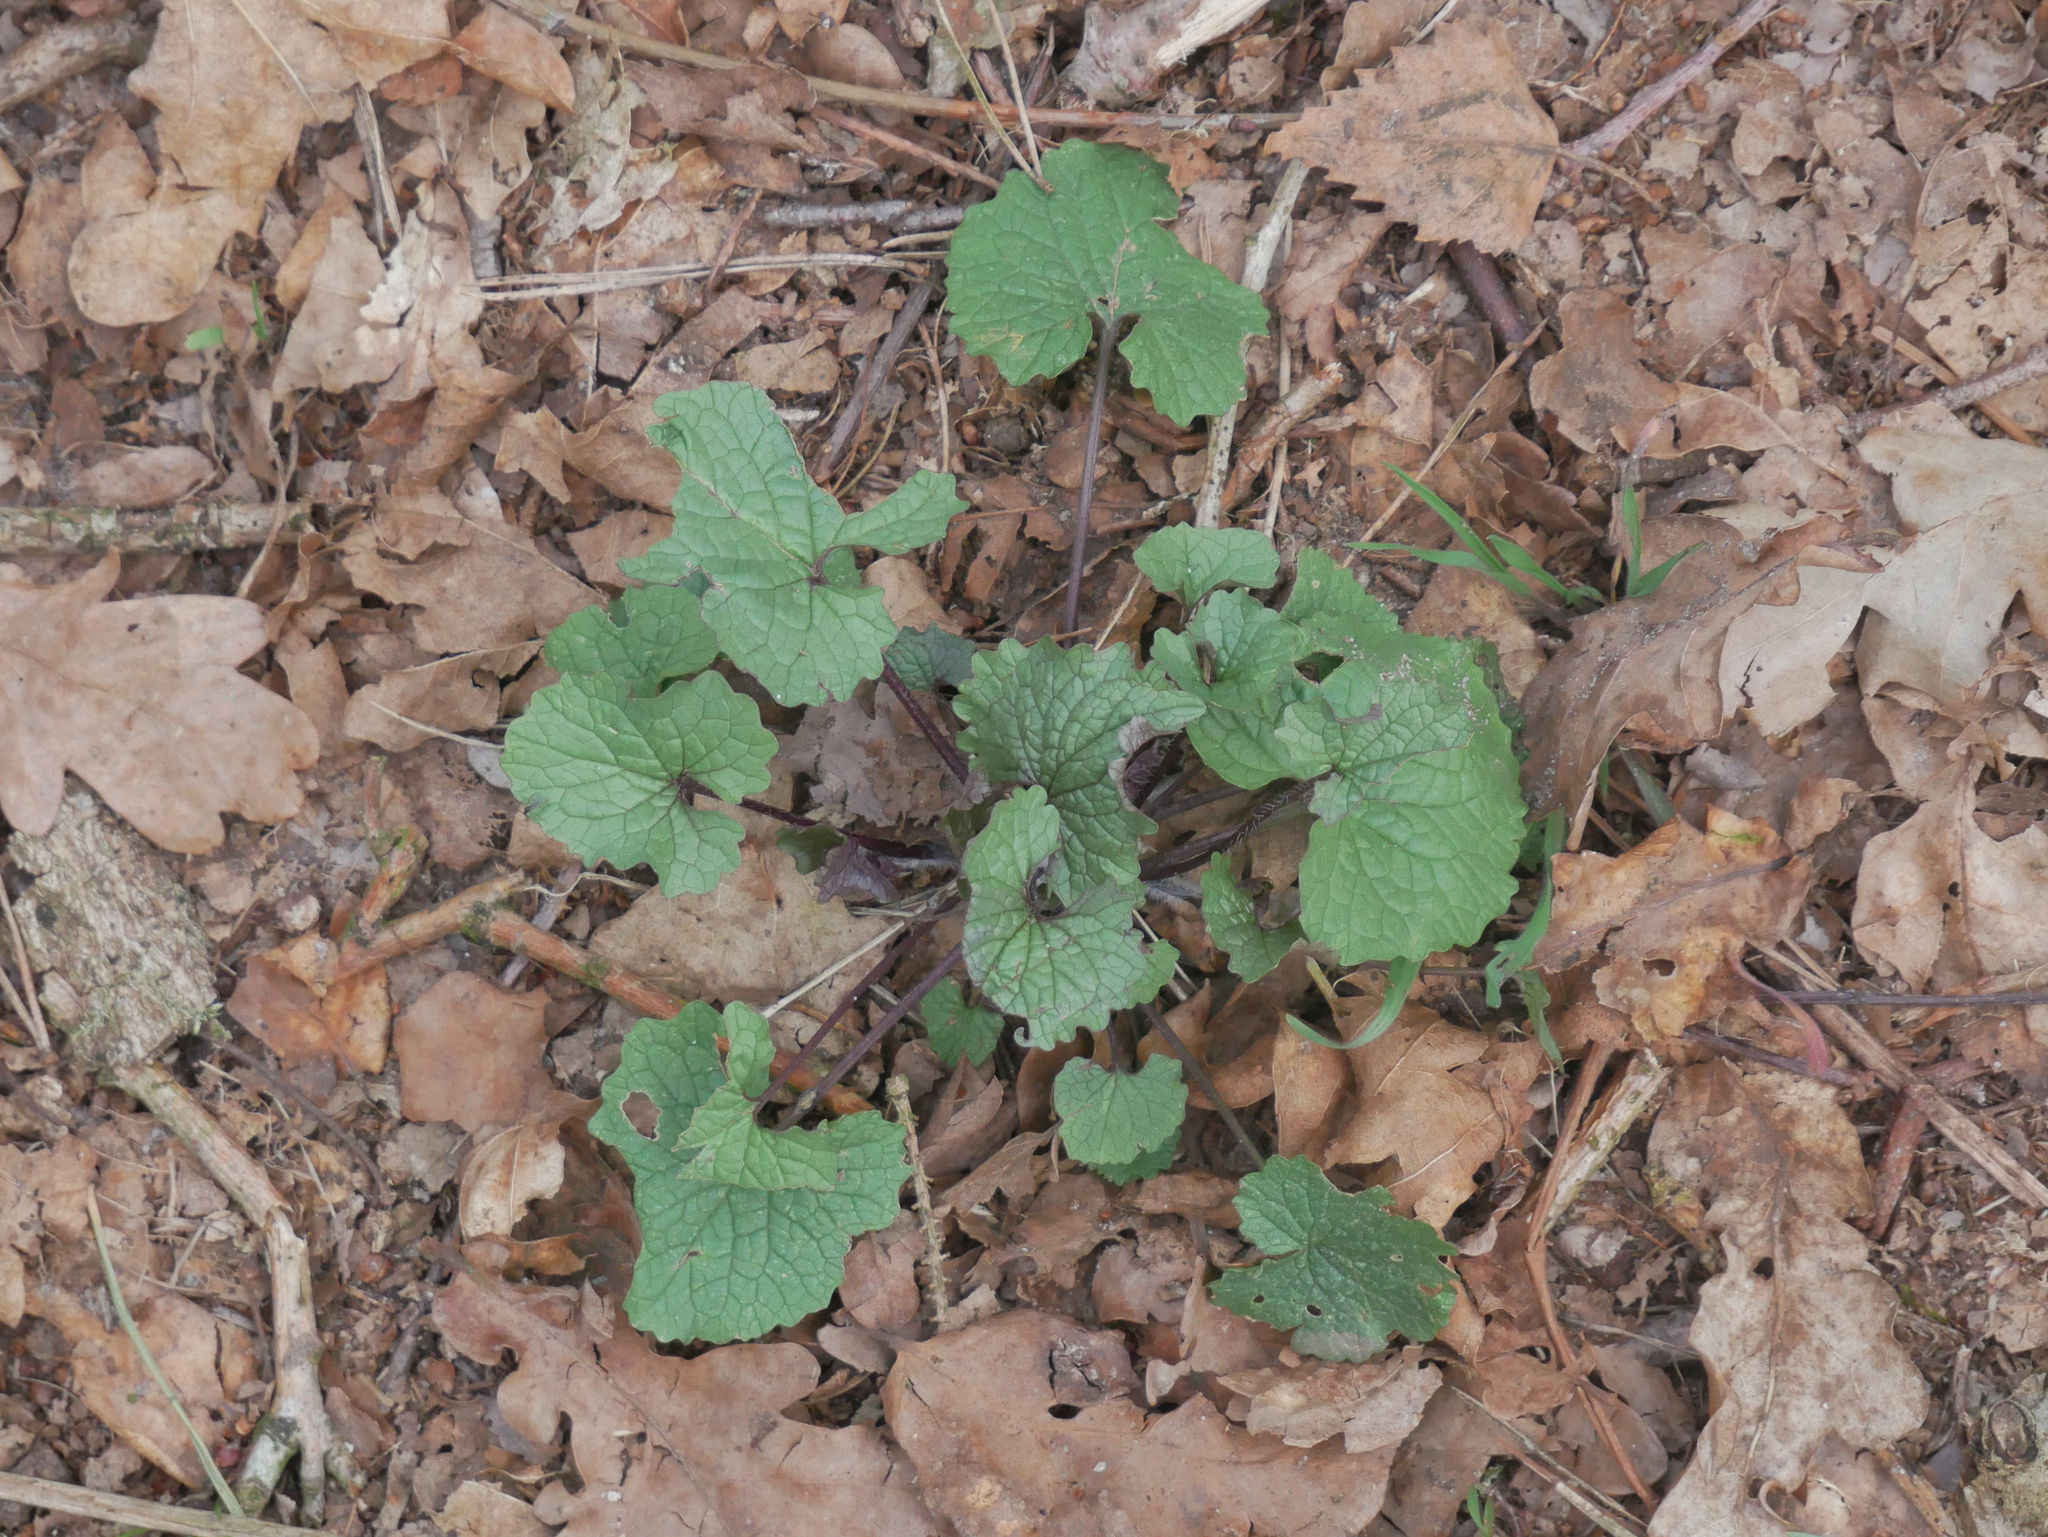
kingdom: Plantae
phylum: Tracheophyta
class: Magnoliopsida
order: Brassicales
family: Brassicaceae
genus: Alliaria
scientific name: Alliaria petiolata
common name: Garlic mustard
